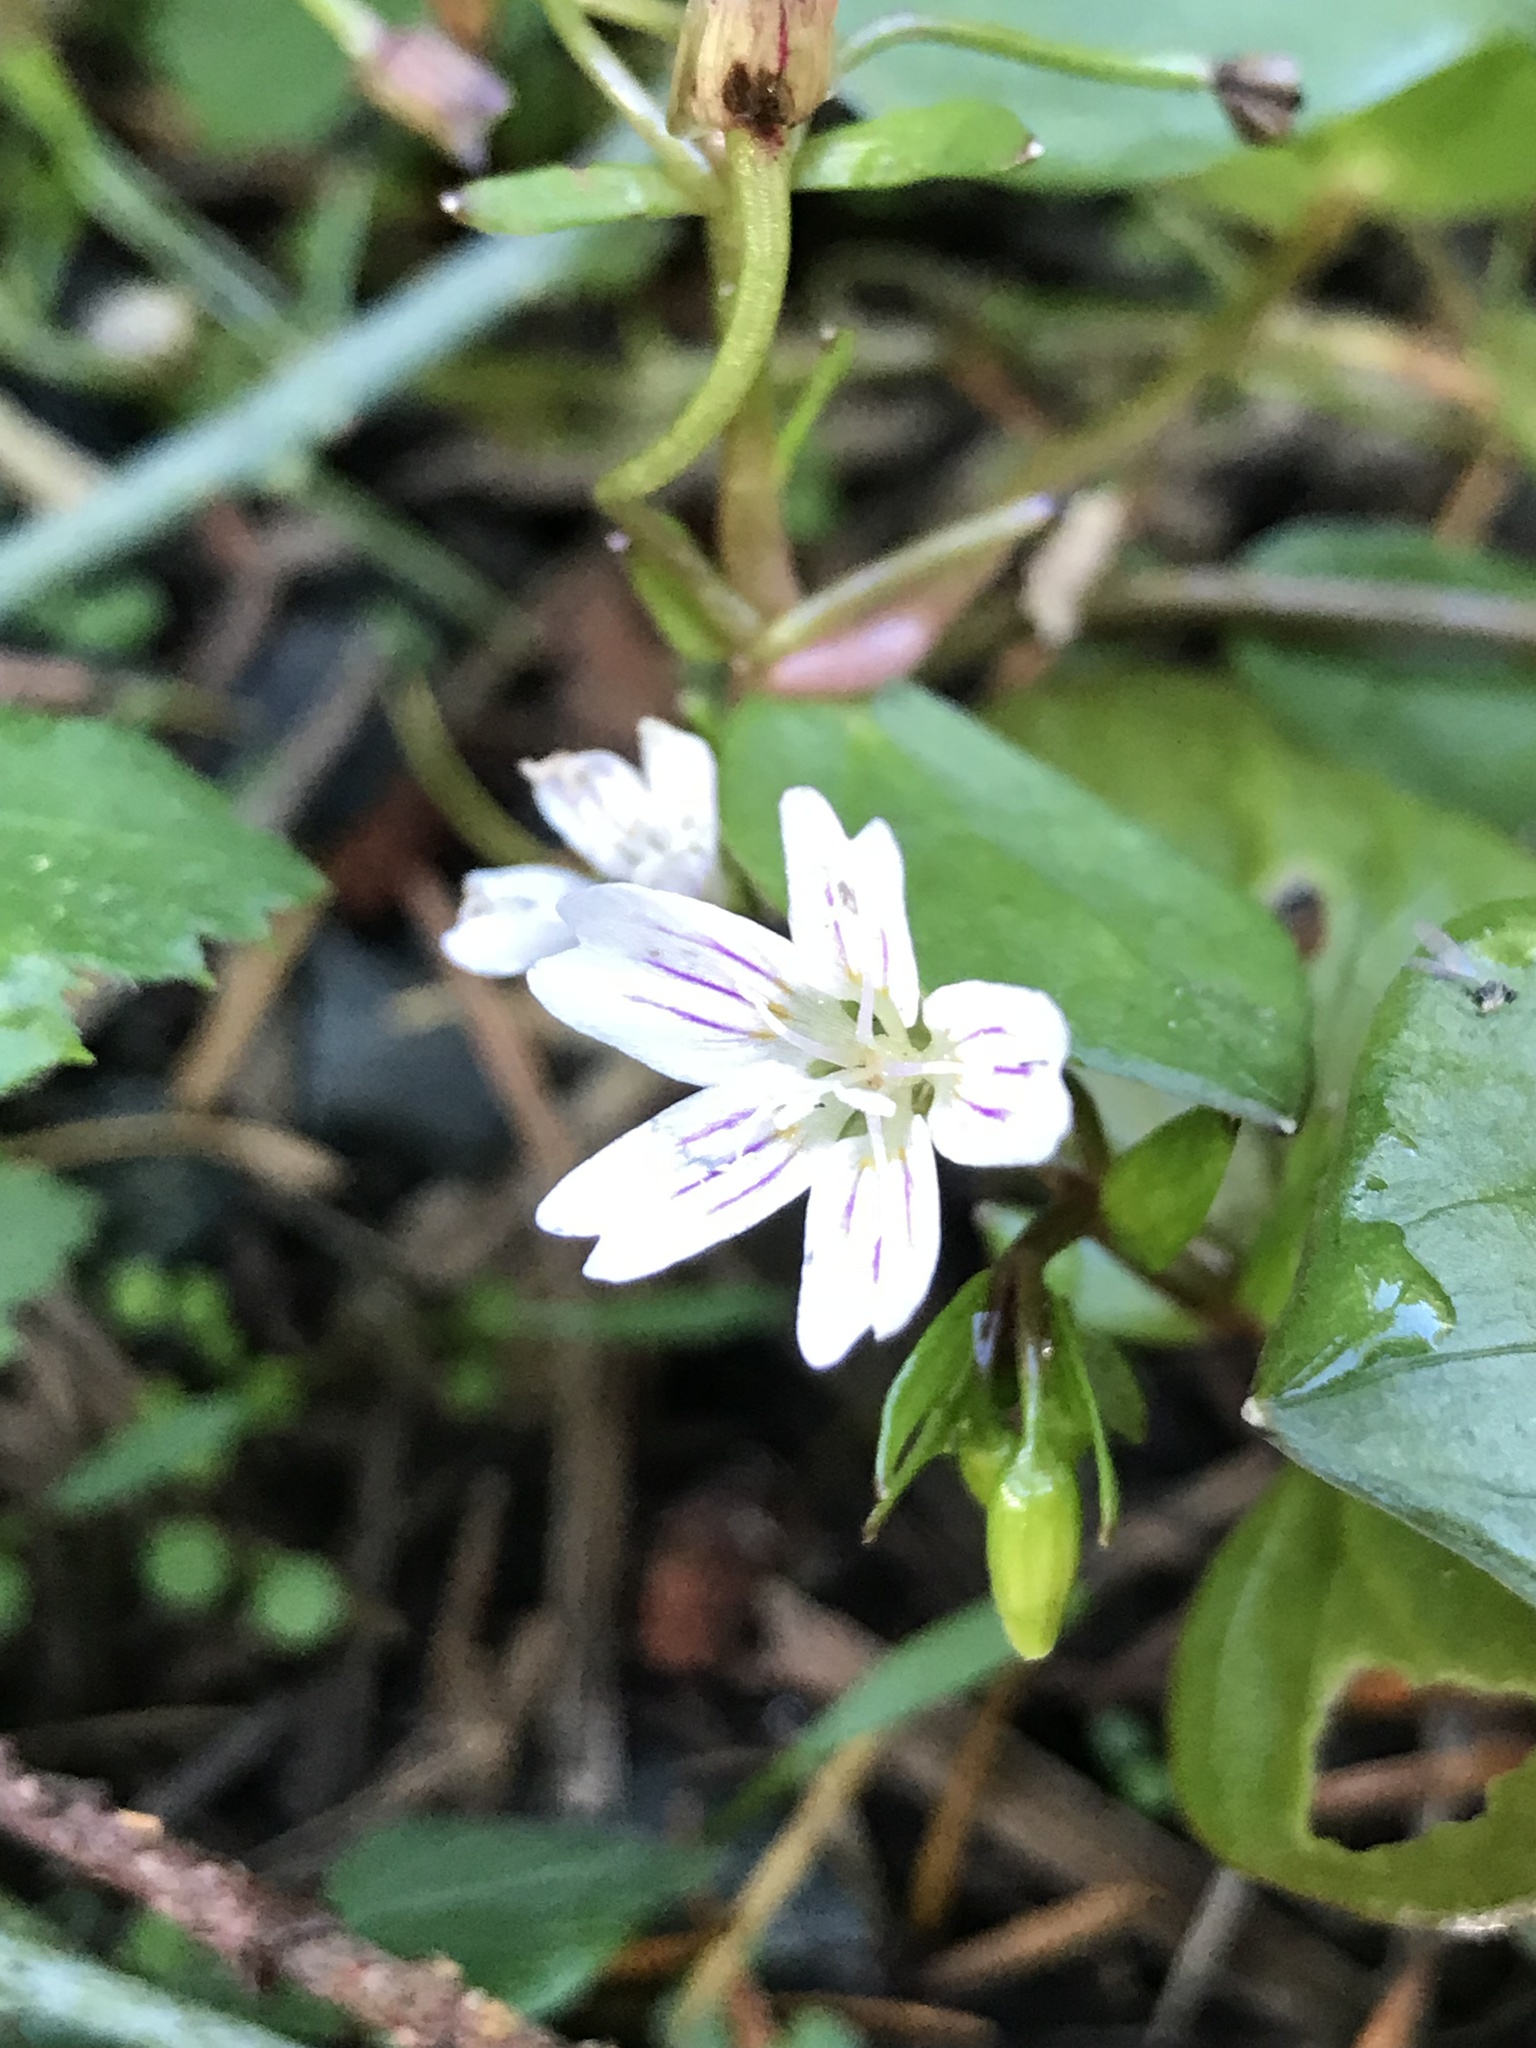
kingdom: Plantae
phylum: Tracheophyta
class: Magnoliopsida
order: Caryophyllales
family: Montiaceae
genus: Claytonia
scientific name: Claytonia sibirica
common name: Pink purslane
